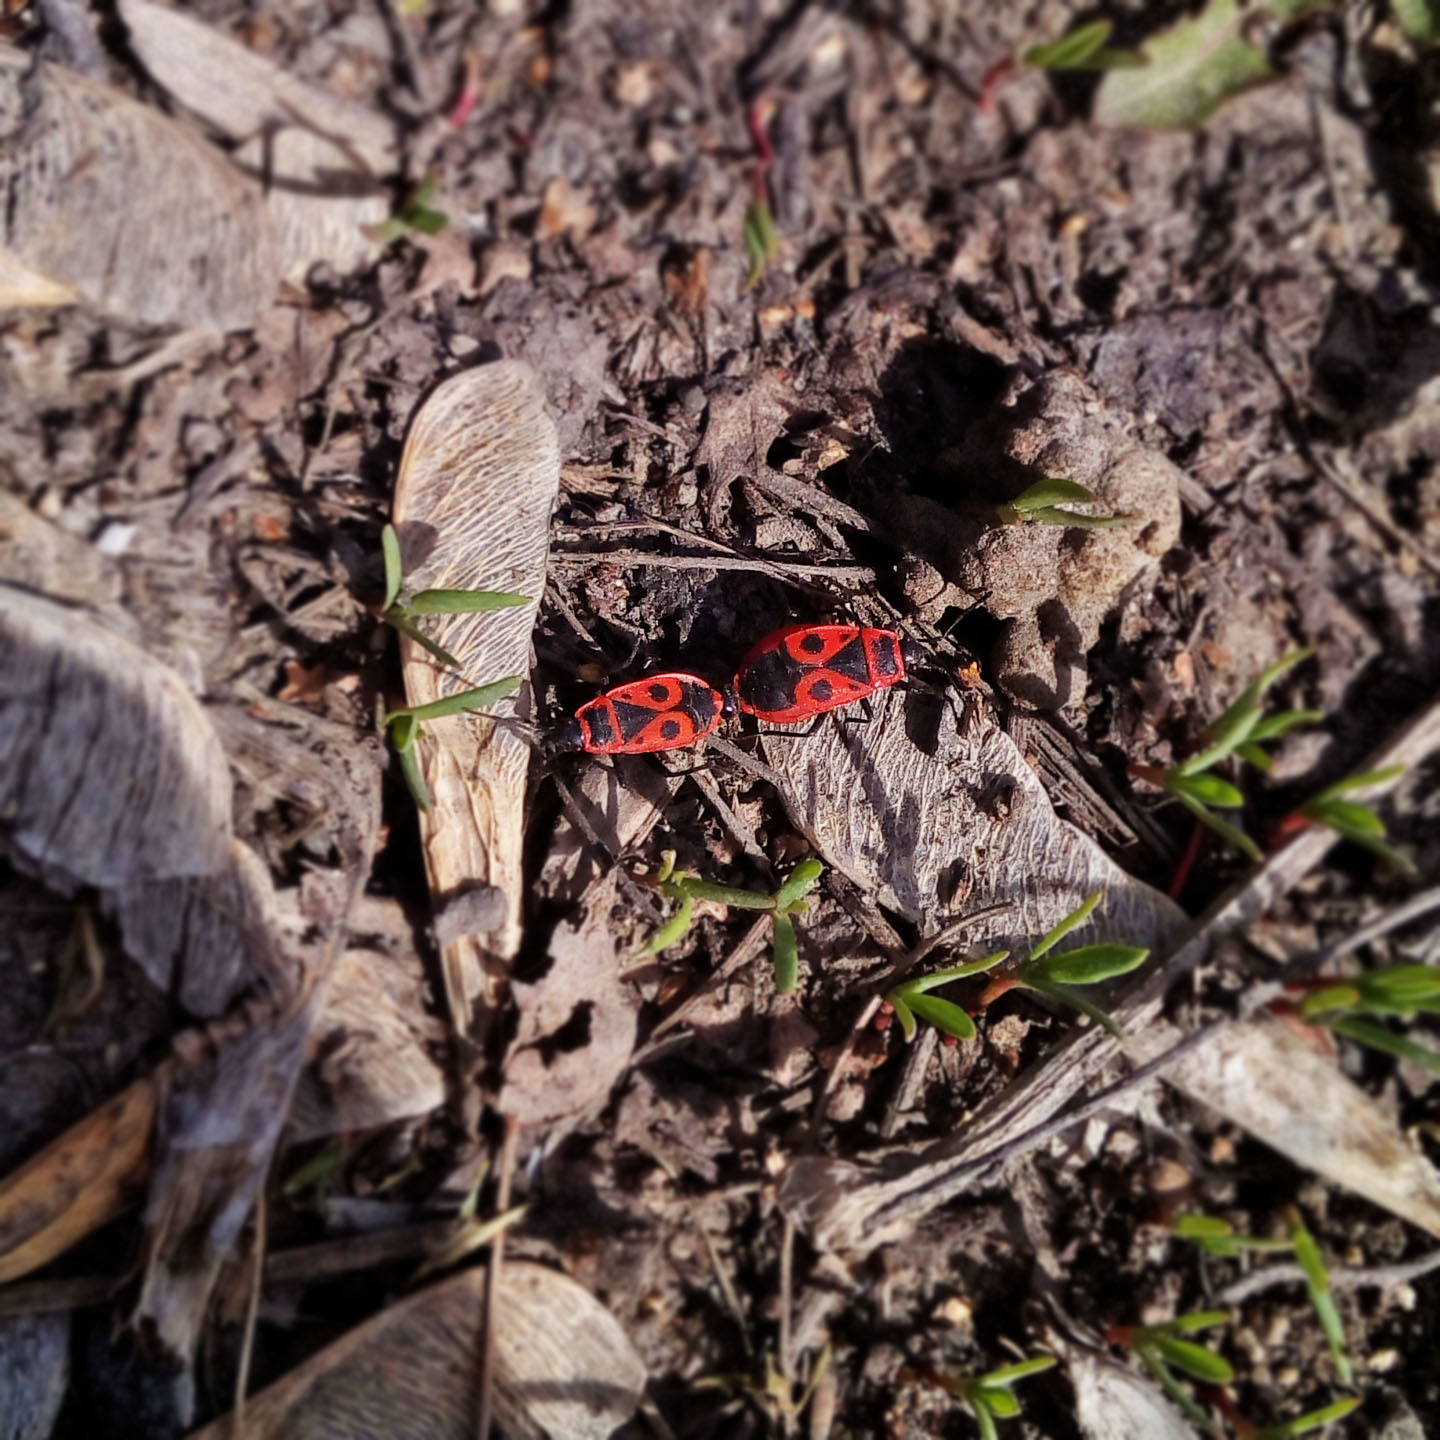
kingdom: Animalia
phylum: Arthropoda
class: Insecta
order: Hemiptera
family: Pyrrhocoridae
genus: Pyrrhocoris
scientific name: Pyrrhocoris apterus
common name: Firebug
